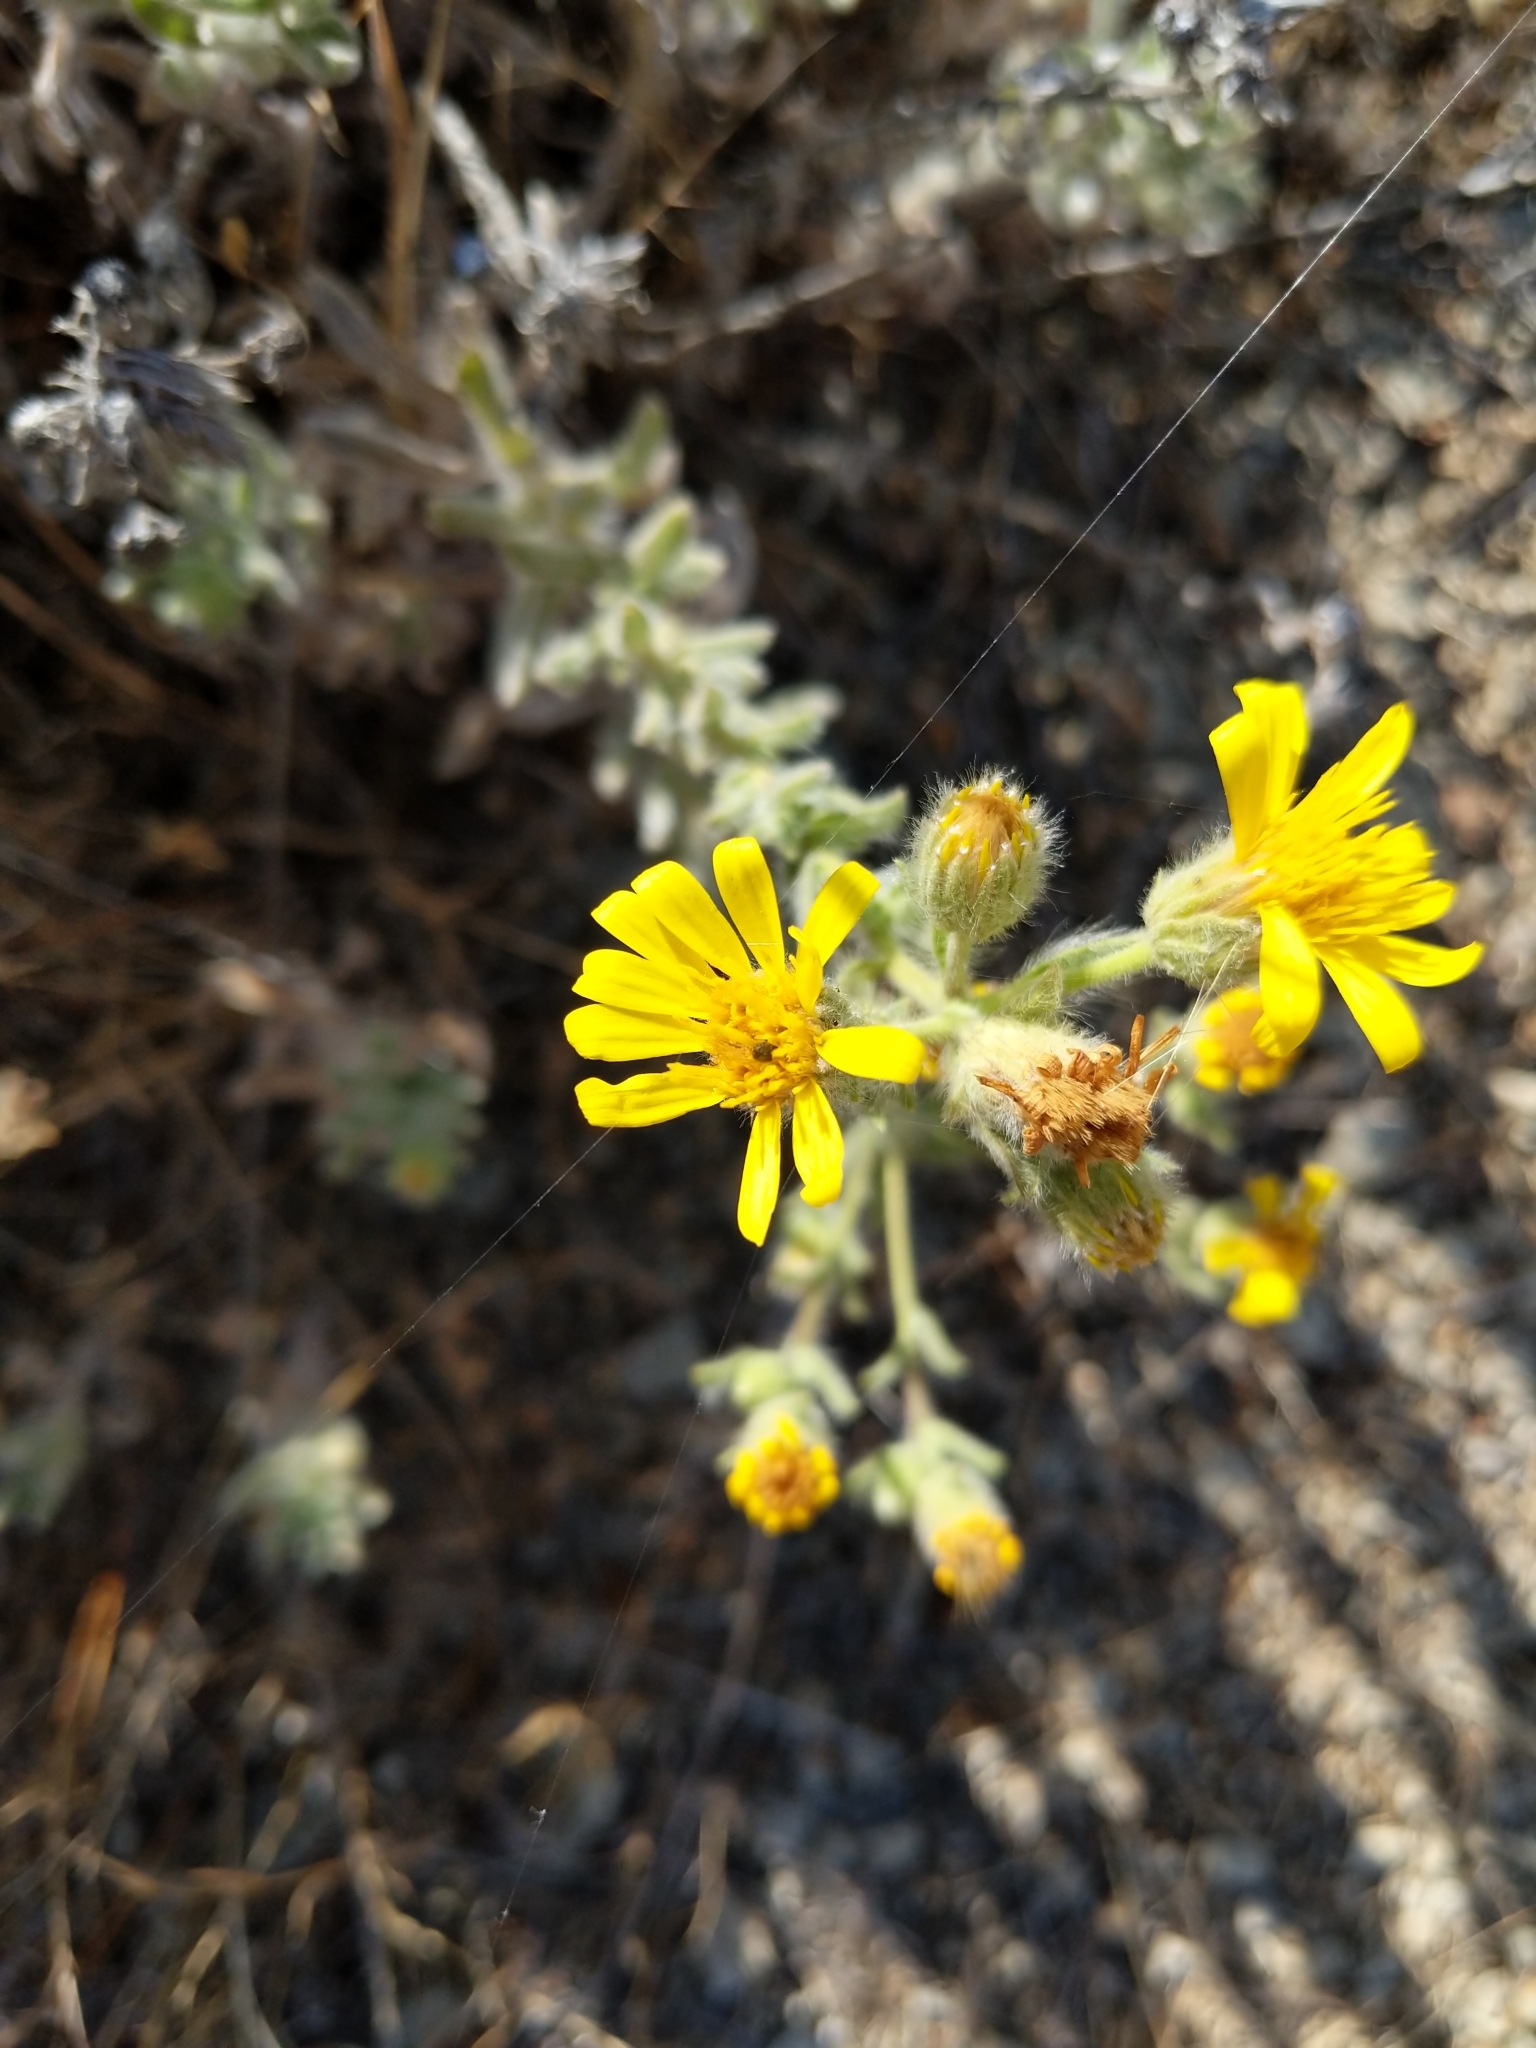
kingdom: Plantae
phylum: Tracheophyta
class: Magnoliopsida
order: Asterales
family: Asteraceae
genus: Heterotheca
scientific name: Heterotheca sessiliflora
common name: Sessile-flower golden-aster
